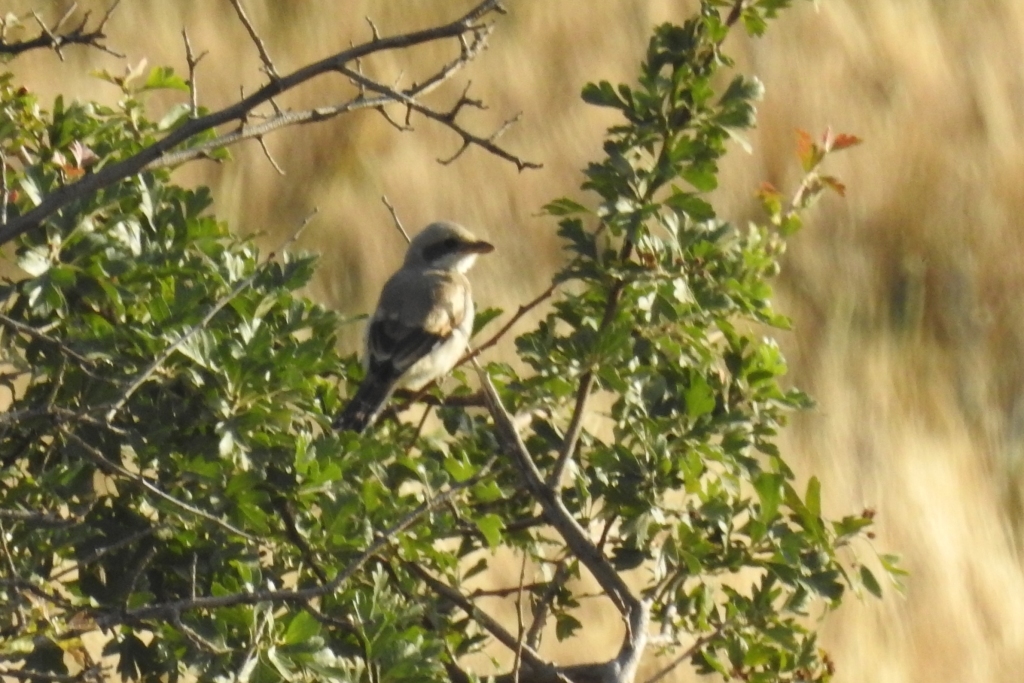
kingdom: Animalia
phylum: Chordata
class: Aves
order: Passeriformes
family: Laniidae
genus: Lanius
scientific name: Lanius excubitor
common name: Great grey shrike
